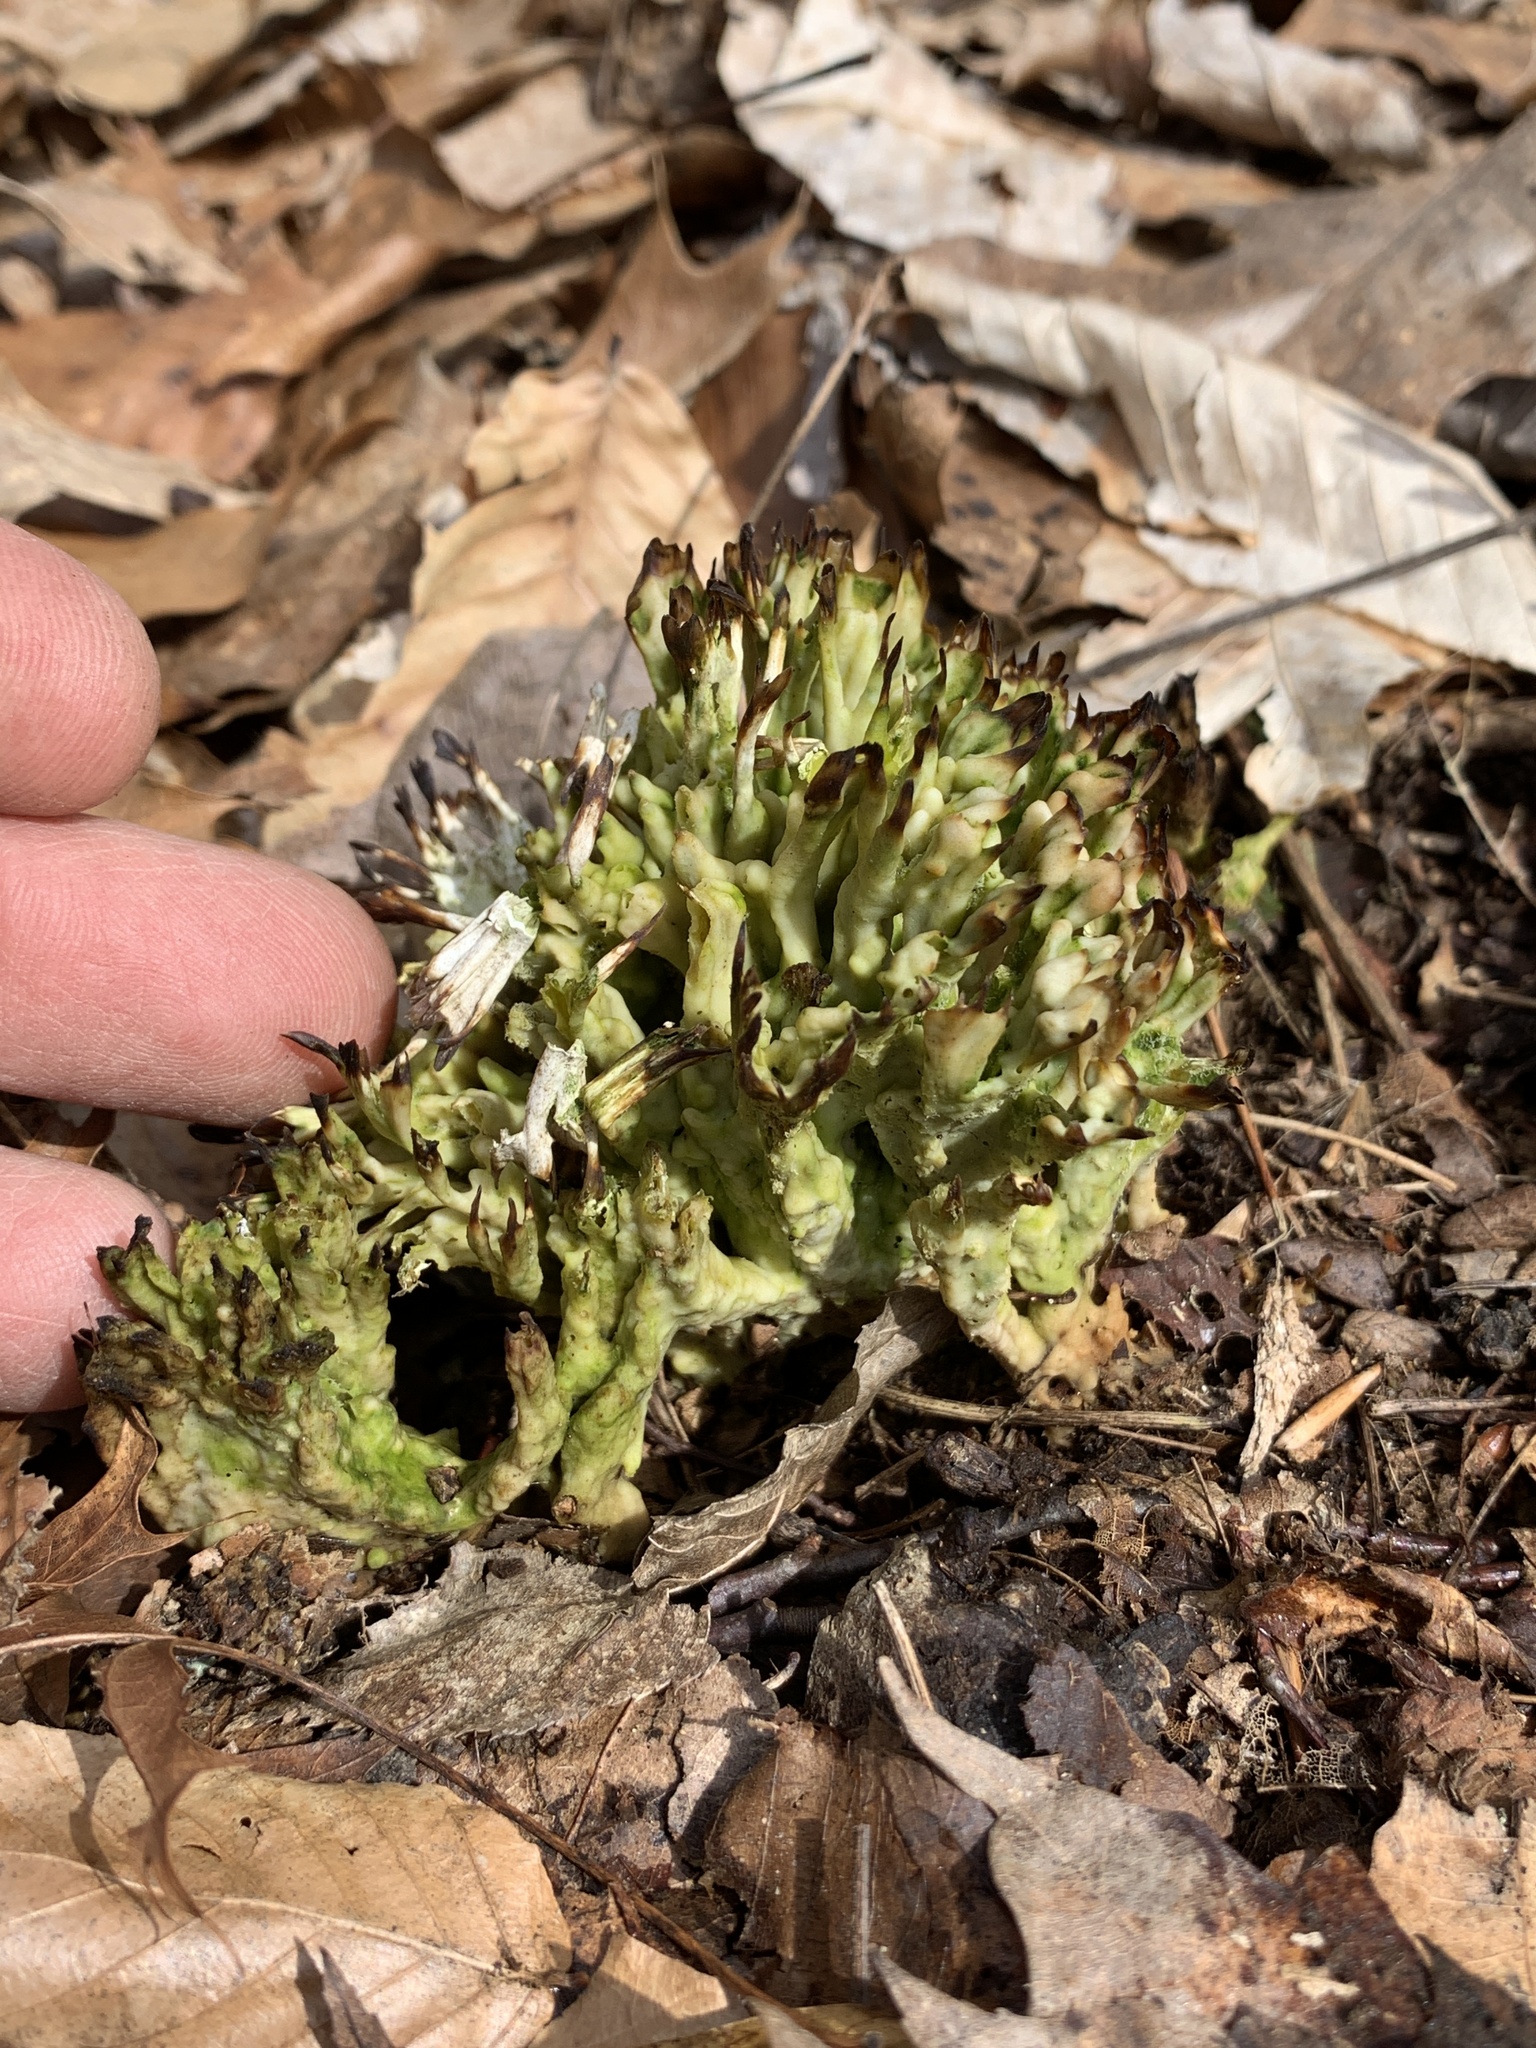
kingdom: Fungi
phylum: Basidiomycota
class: Agaricomycetes
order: Sebacinales
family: Sebacinaceae
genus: Sebacina
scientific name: Sebacina schweinitzii
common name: Jellied false coral fungus
